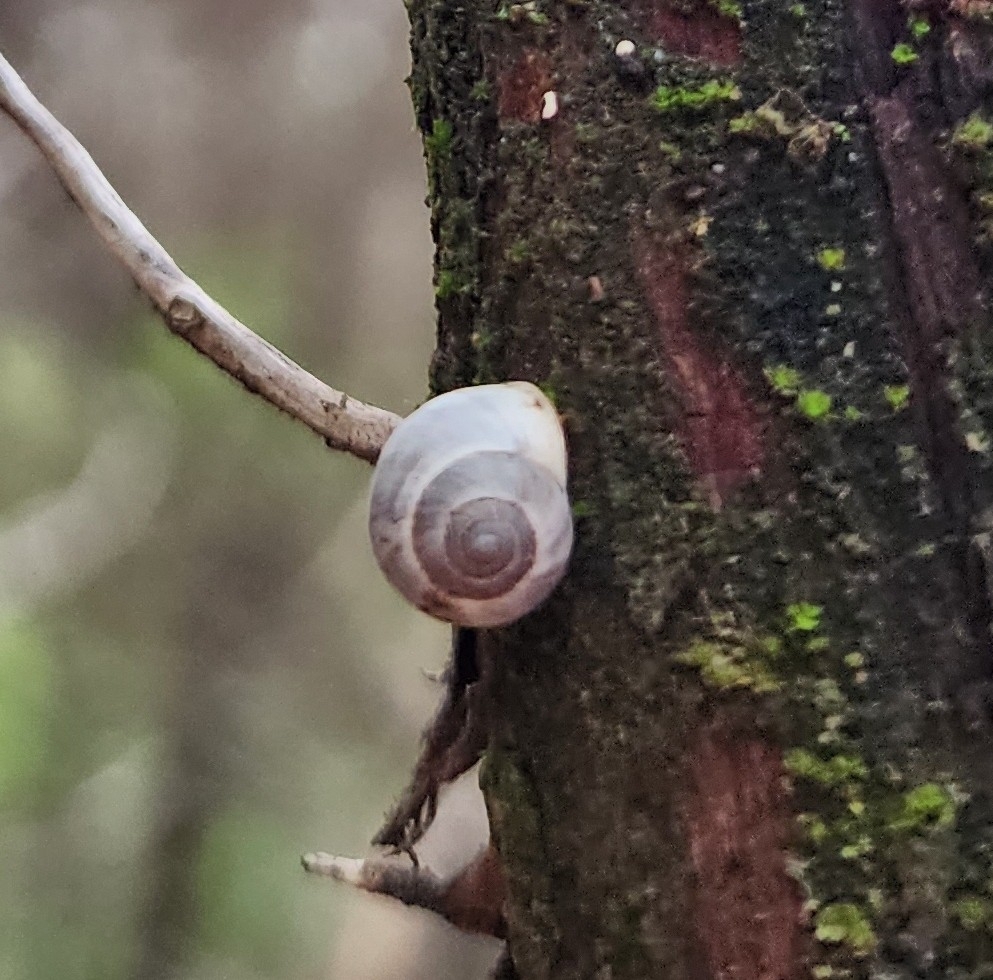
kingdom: Animalia
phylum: Mollusca
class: Gastropoda
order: Cycloneritida
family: Helicinidae
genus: Helicina
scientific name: Helicina orbiculata
